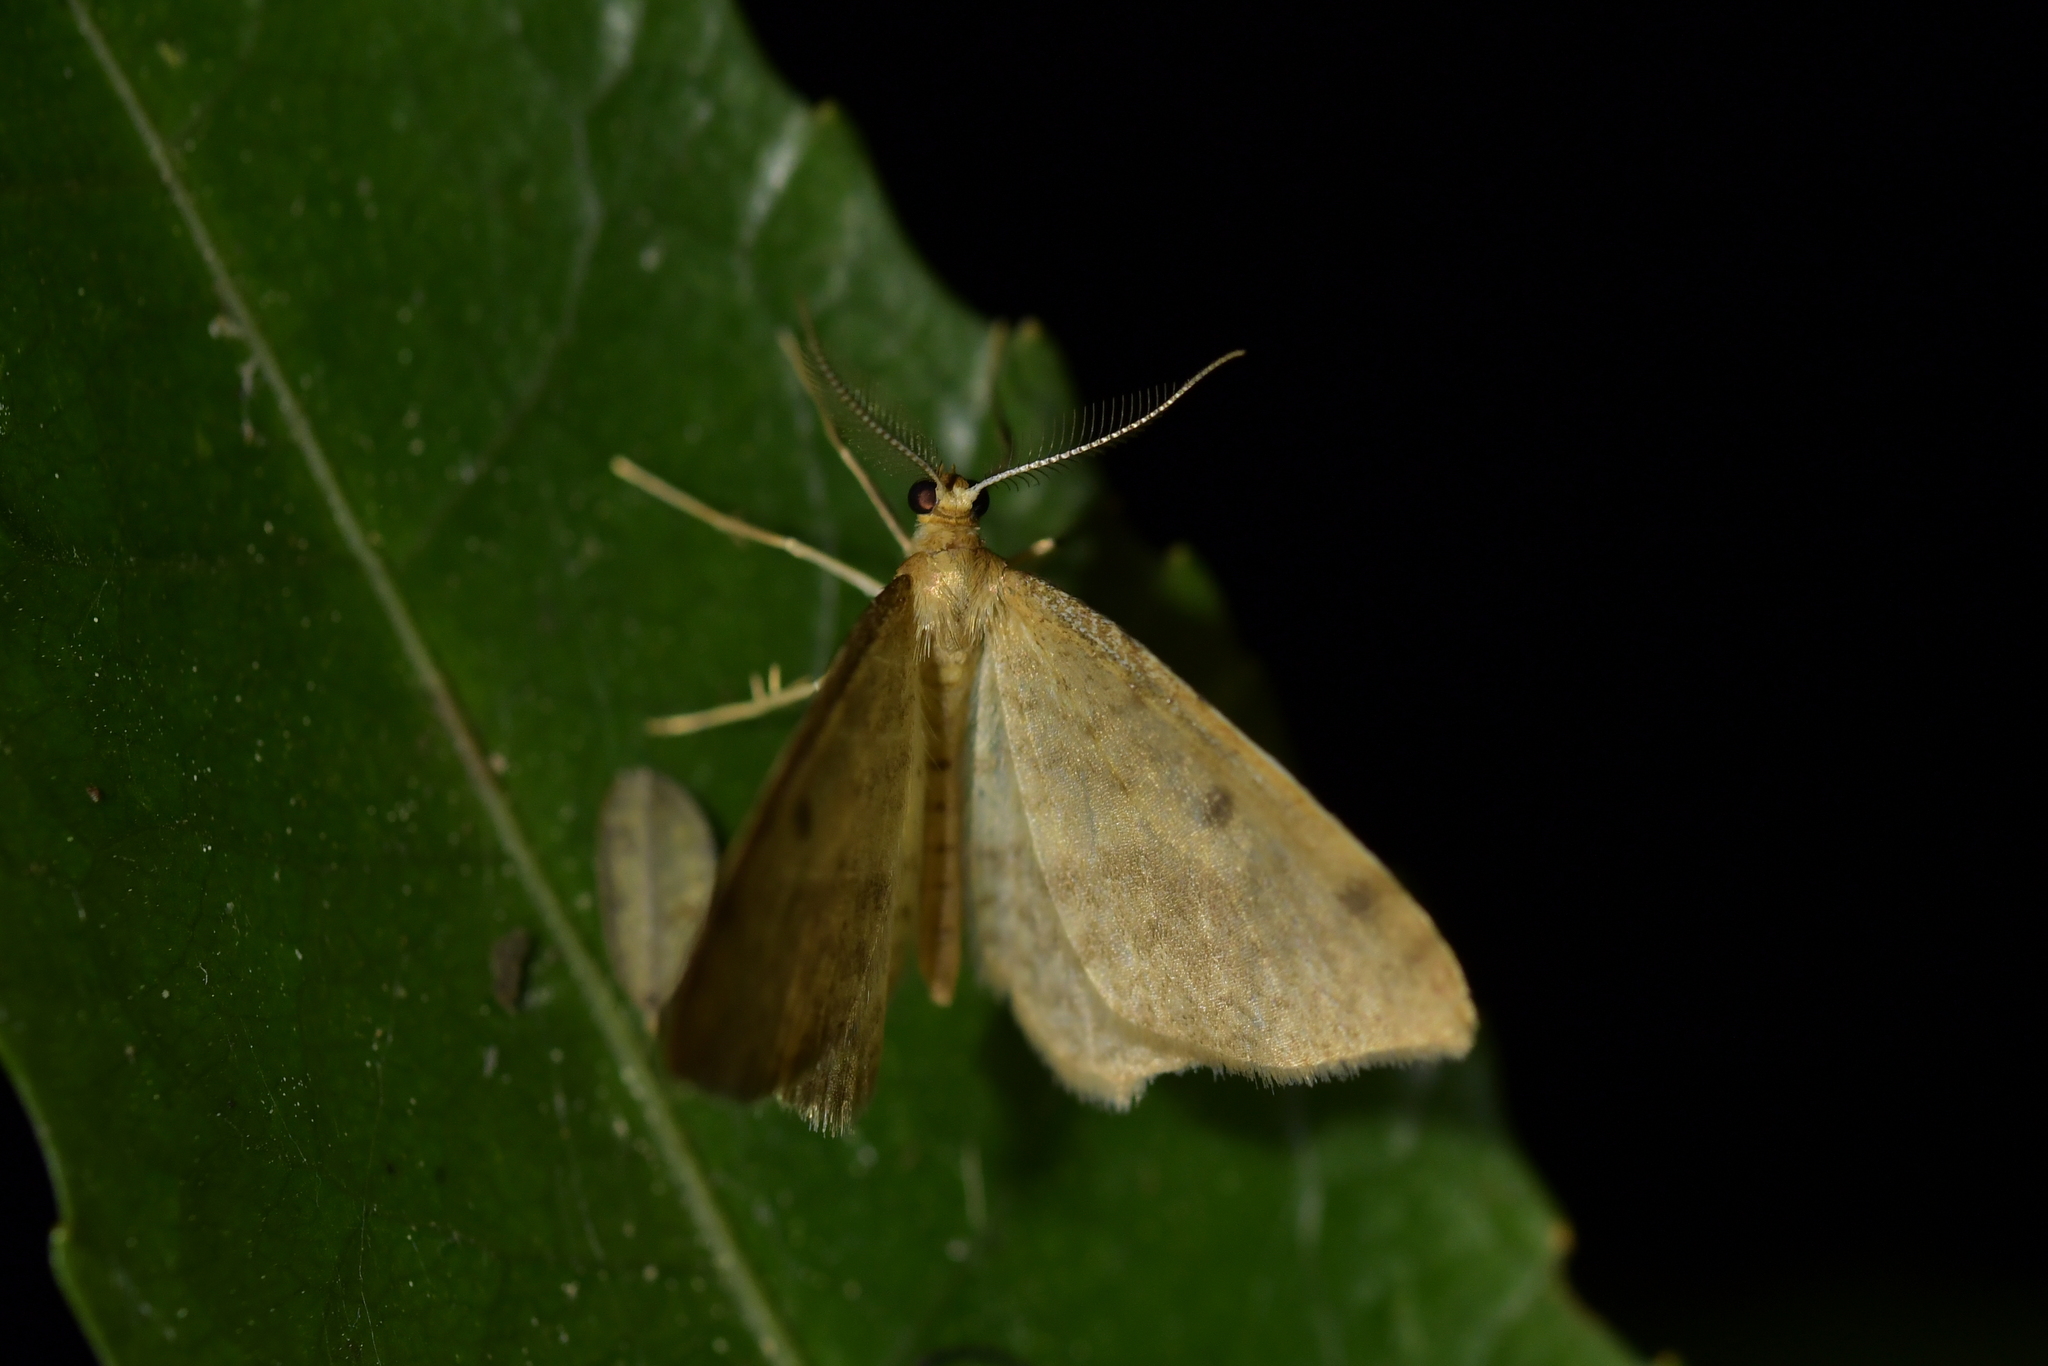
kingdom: Animalia
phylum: Arthropoda
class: Insecta
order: Lepidoptera
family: Geometridae
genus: Epiphryne
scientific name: Epiphryne undosata
